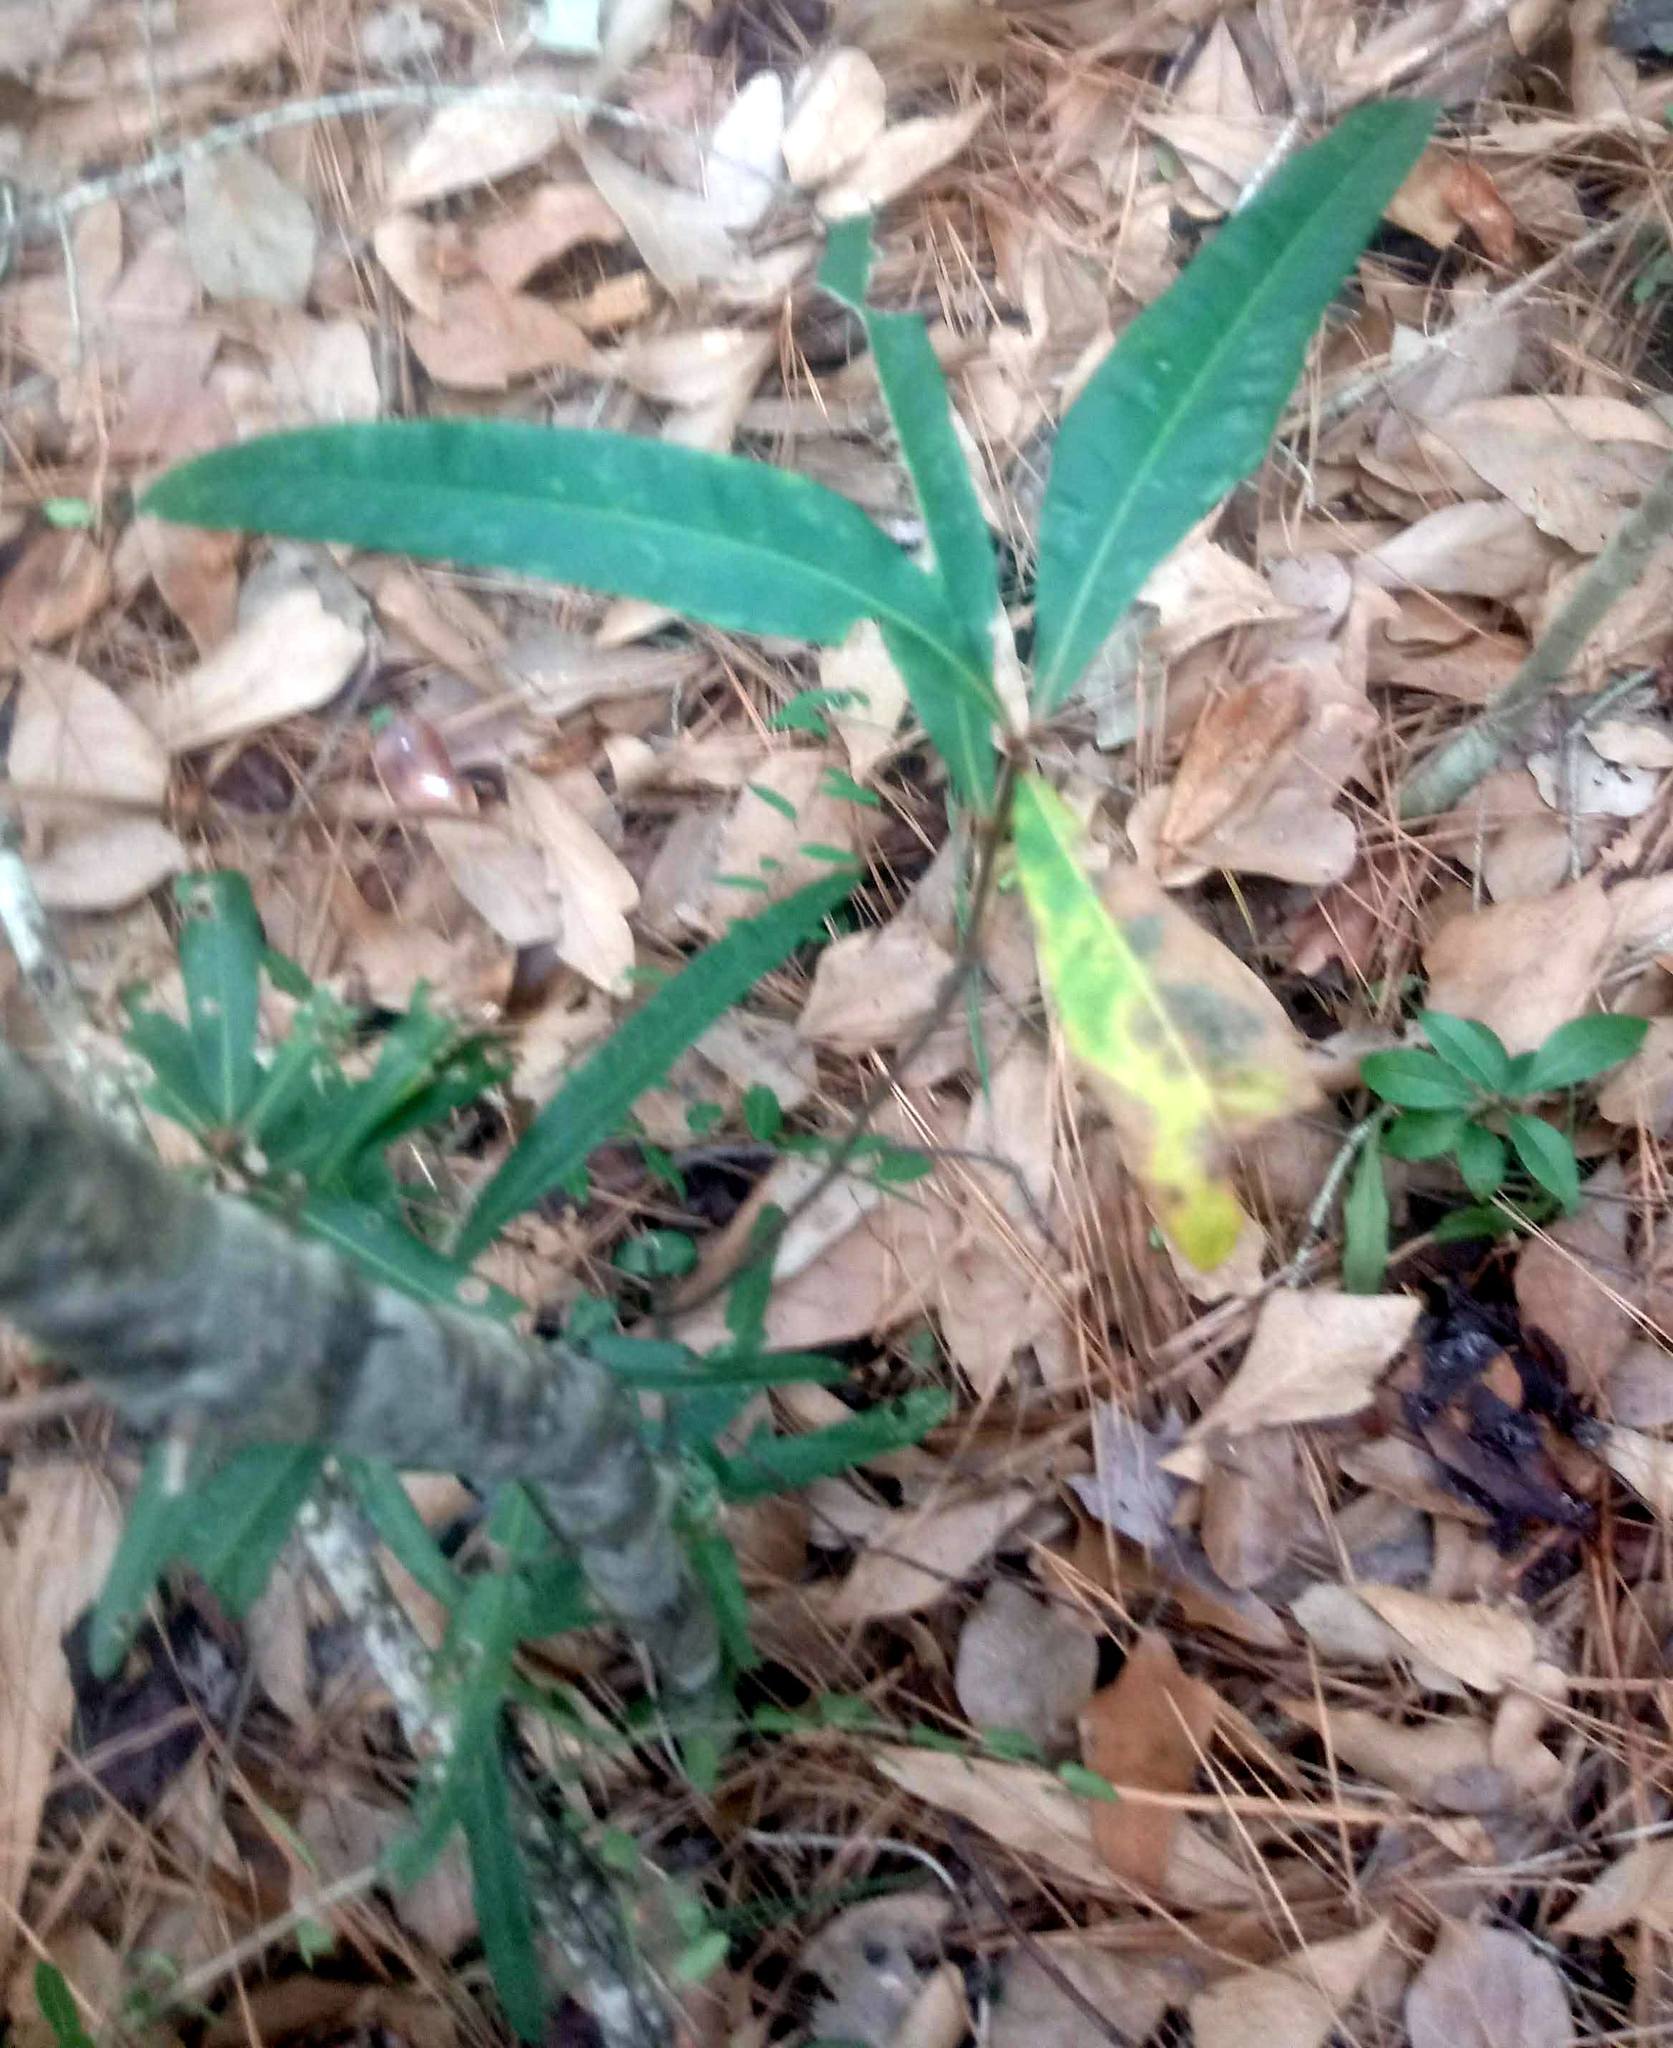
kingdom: Plantae
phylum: Tracheophyta
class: Magnoliopsida
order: Fagales
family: Fagaceae
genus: Quercus
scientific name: Quercus nigra
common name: Water oak
